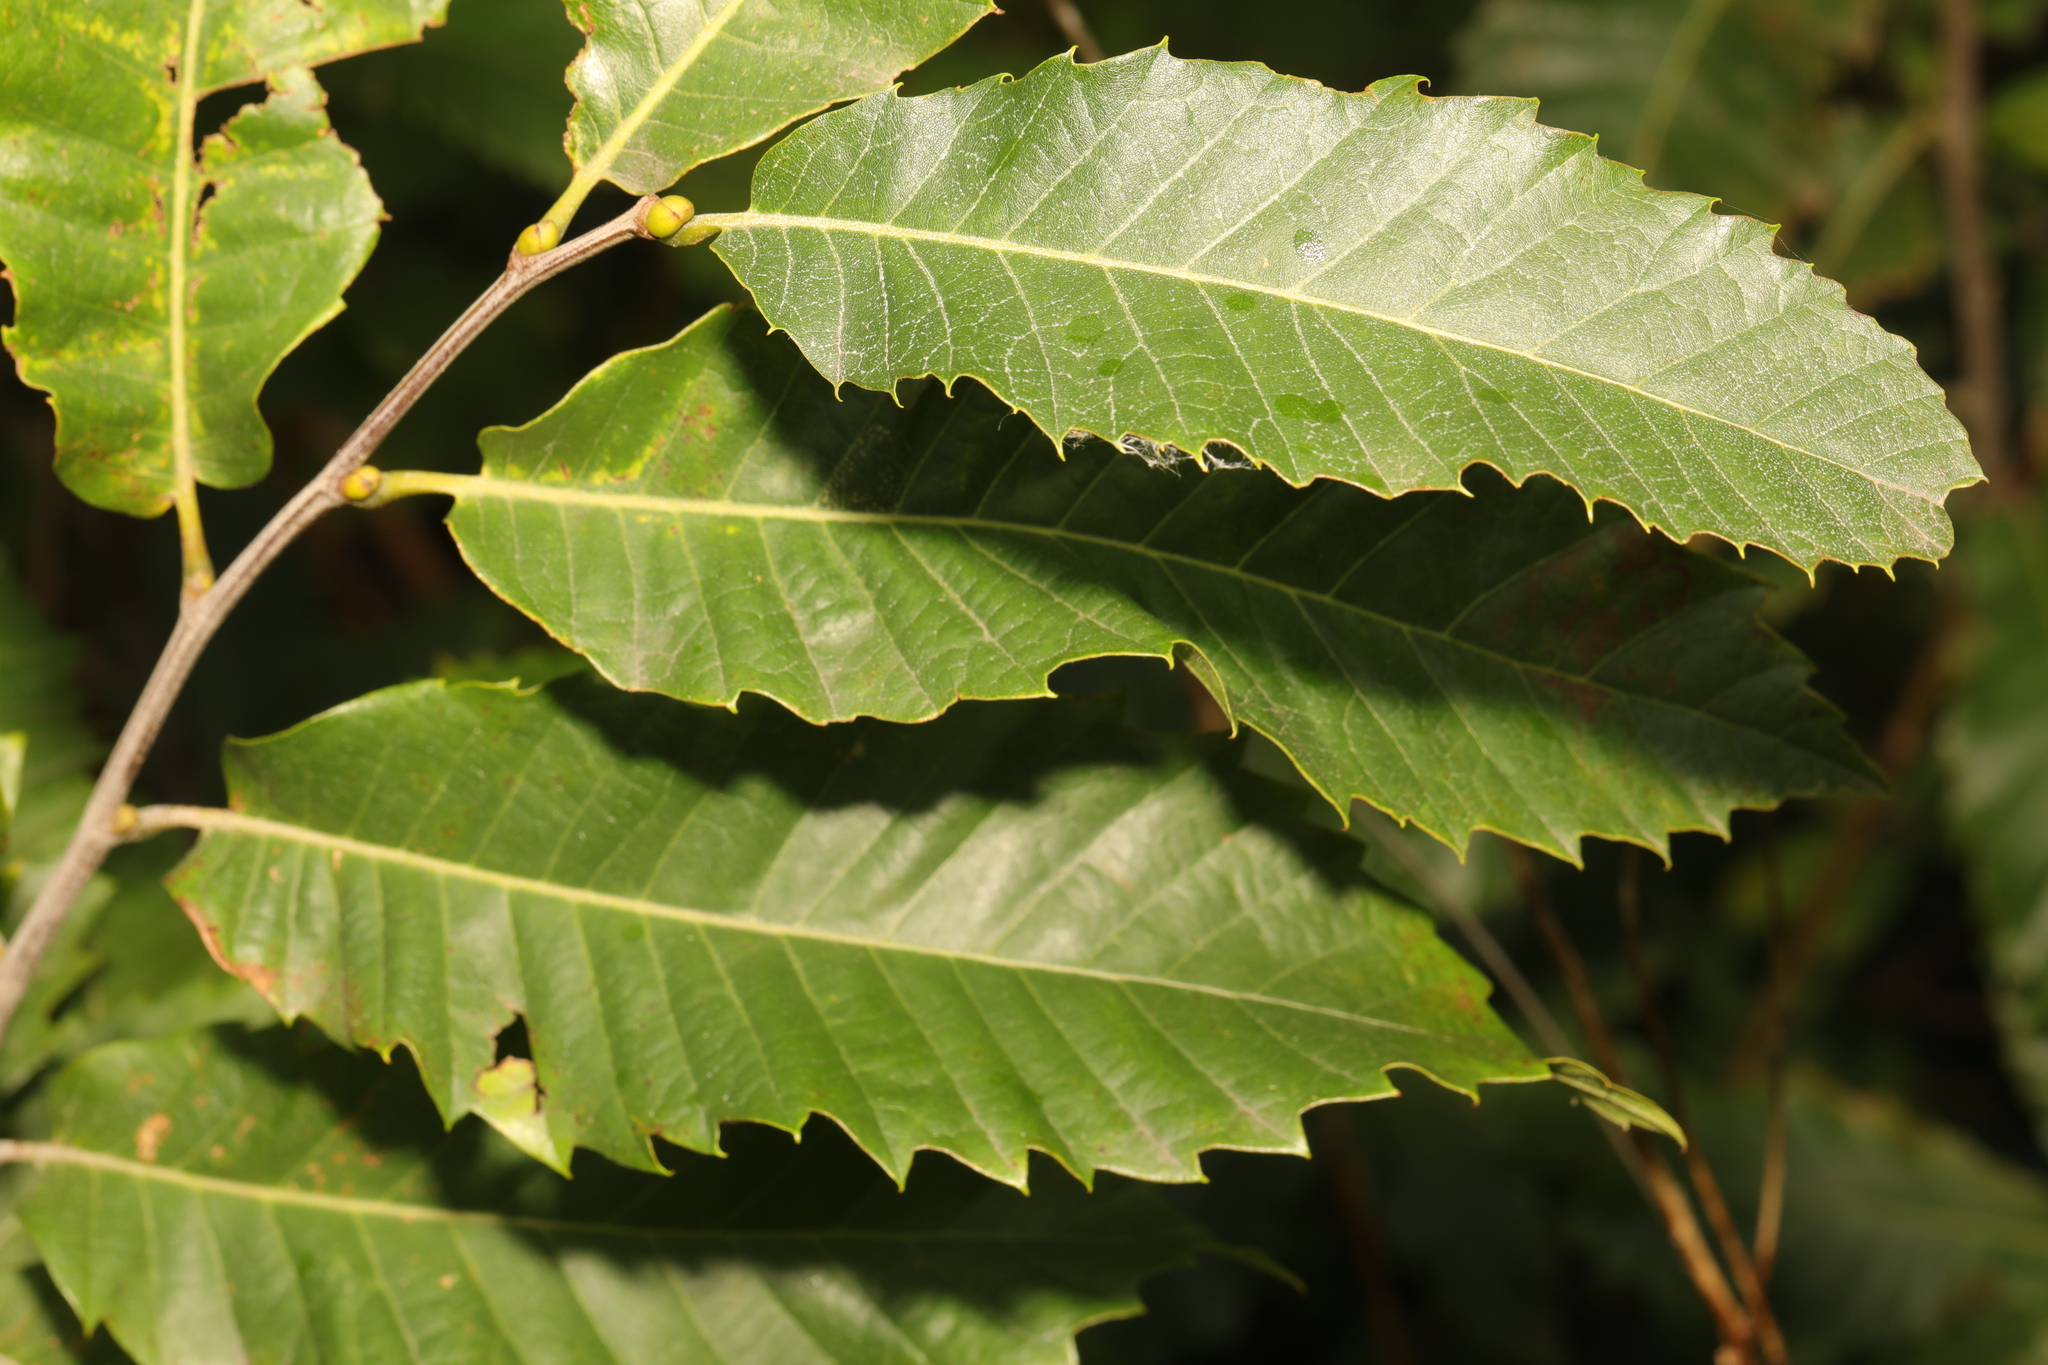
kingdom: Plantae
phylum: Tracheophyta
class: Magnoliopsida
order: Fagales
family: Fagaceae
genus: Castanea
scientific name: Castanea sativa
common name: Sweet chestnut
